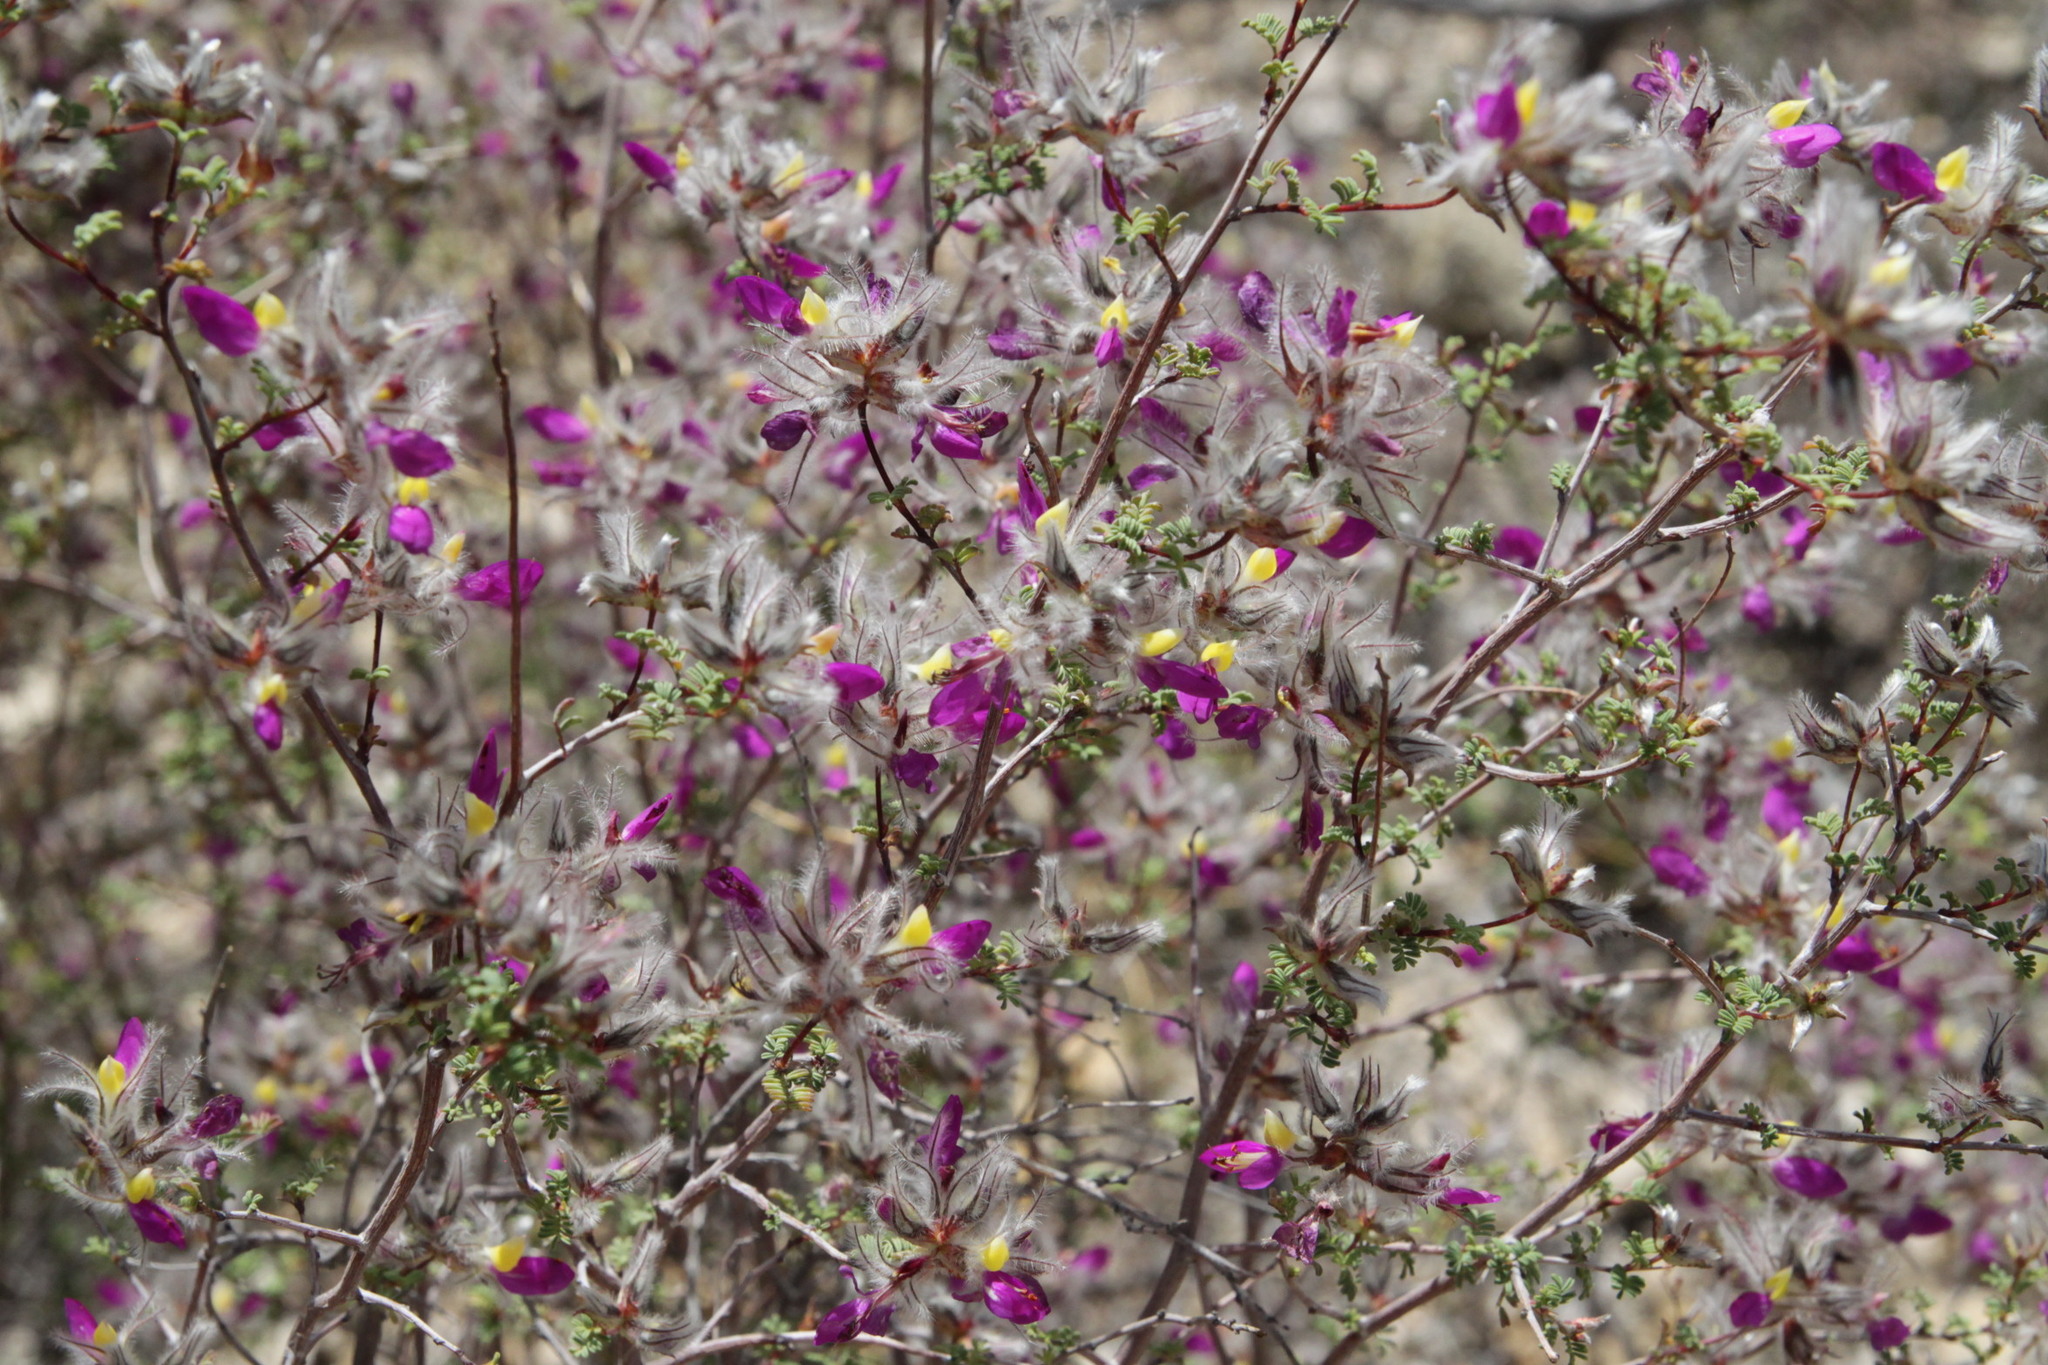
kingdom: Plantae
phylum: Tracheophyta
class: Magnoliopsida
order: Fabales
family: Fabaceae
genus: Dalea
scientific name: Dalea formosa
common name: Feather-plume dalea
